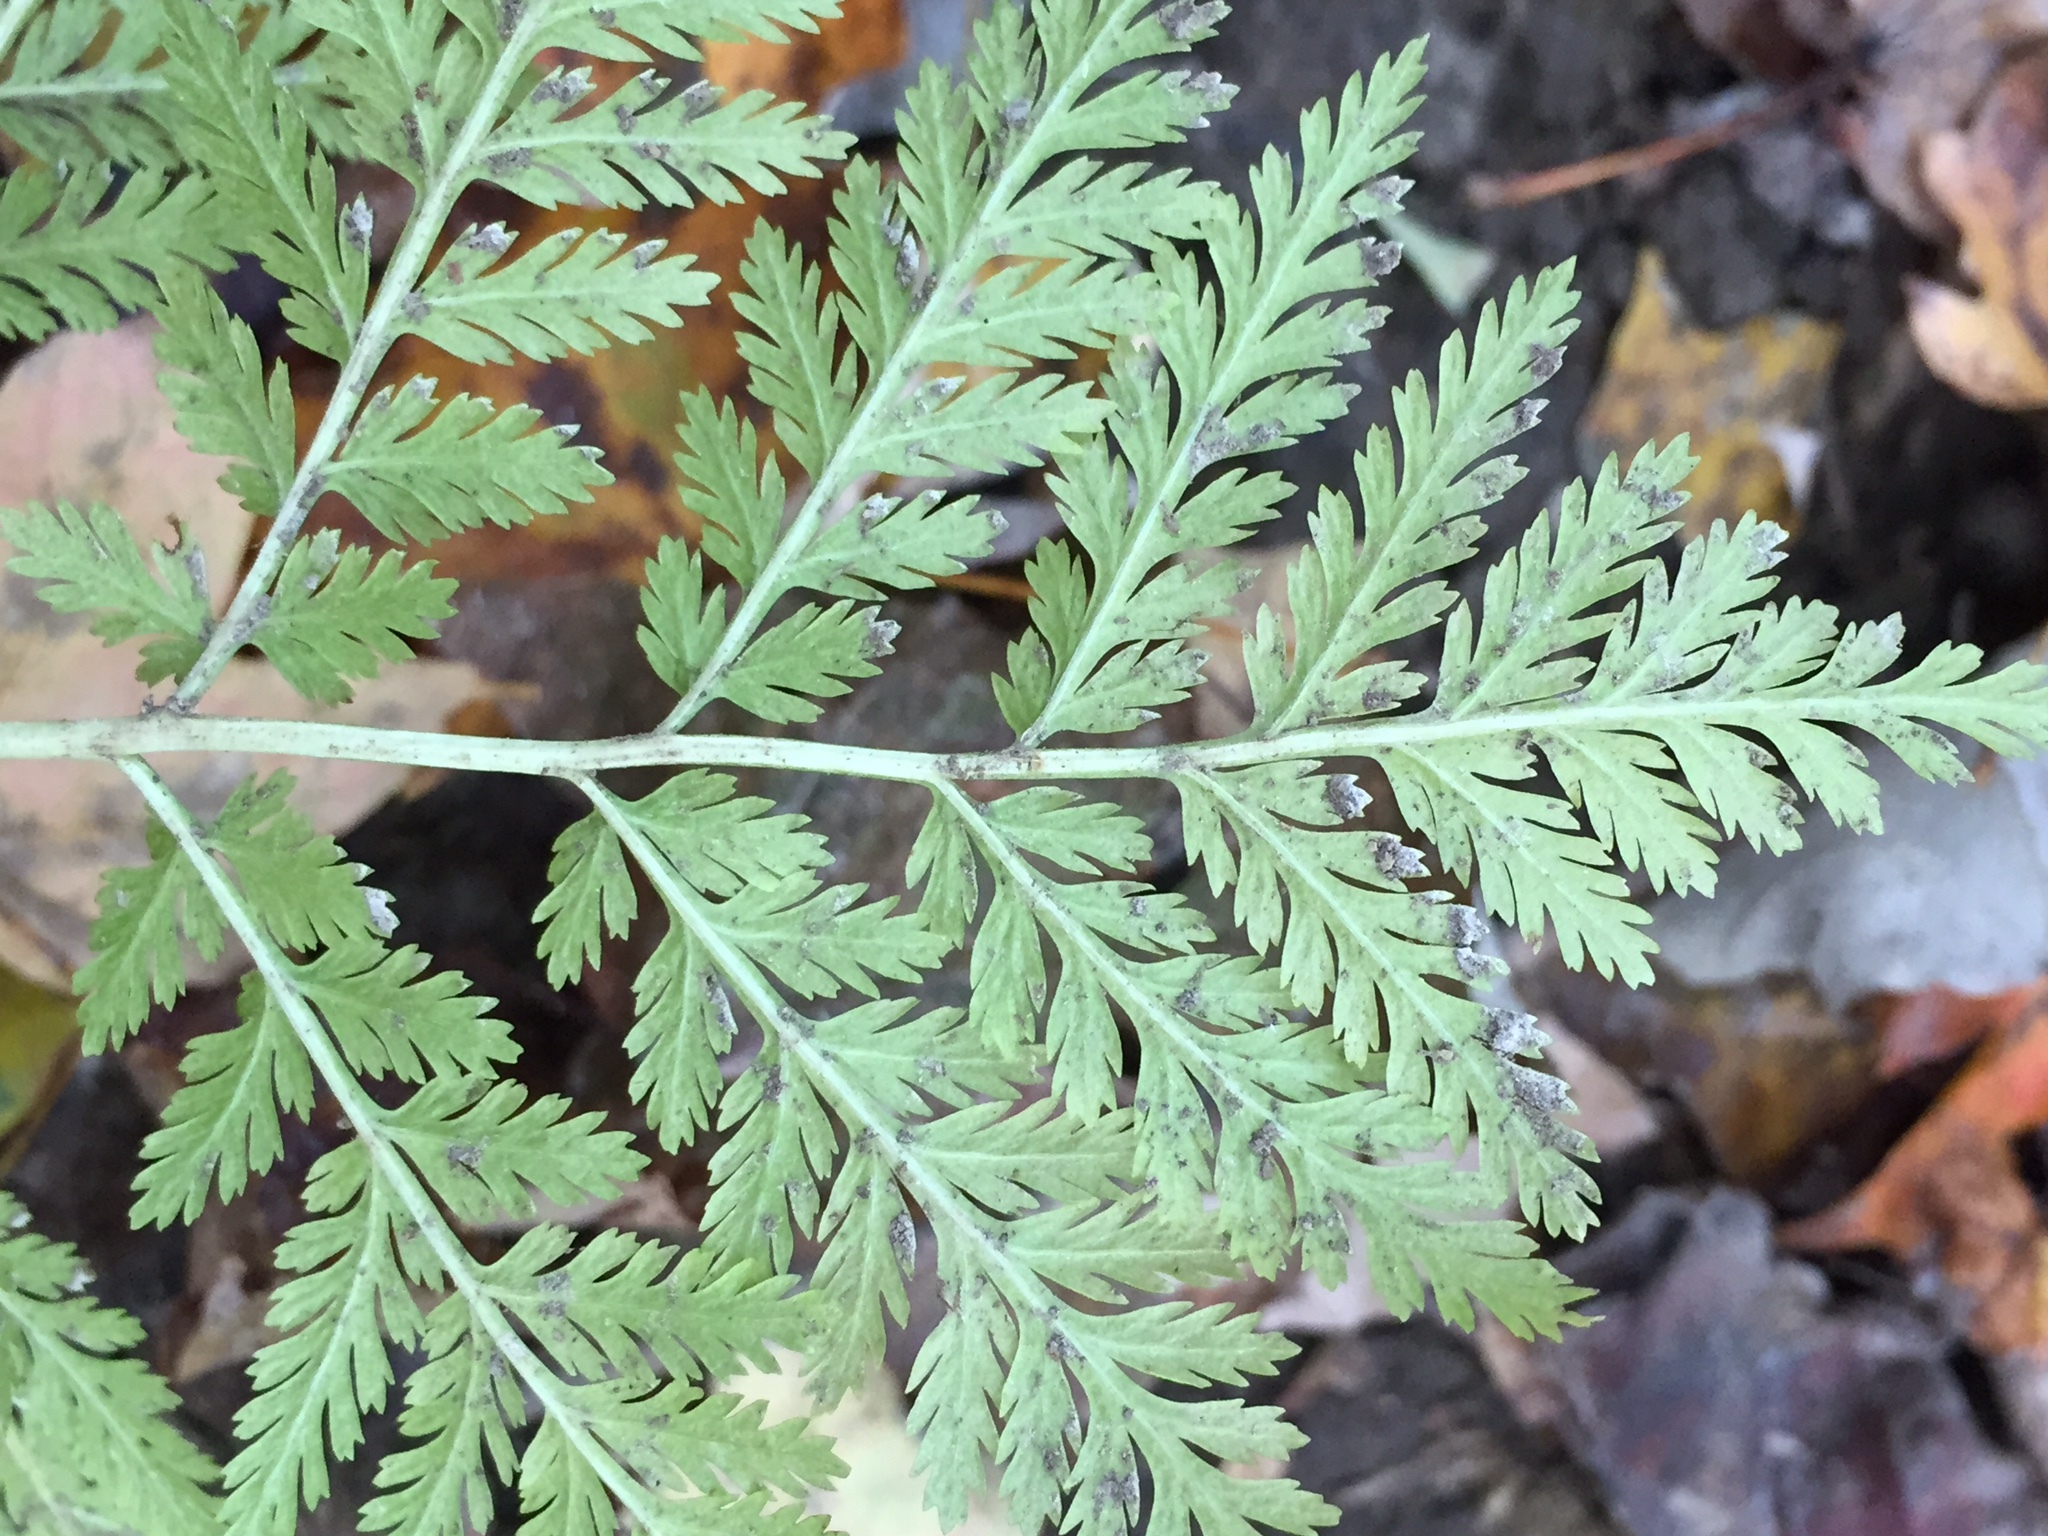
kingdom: Plantae
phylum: Tracheophyta
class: Polypodiopsida
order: Ophioglossales
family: Ophioglossaceae
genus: Botrypus
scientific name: Botrypus virginianus
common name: Common grapefern
